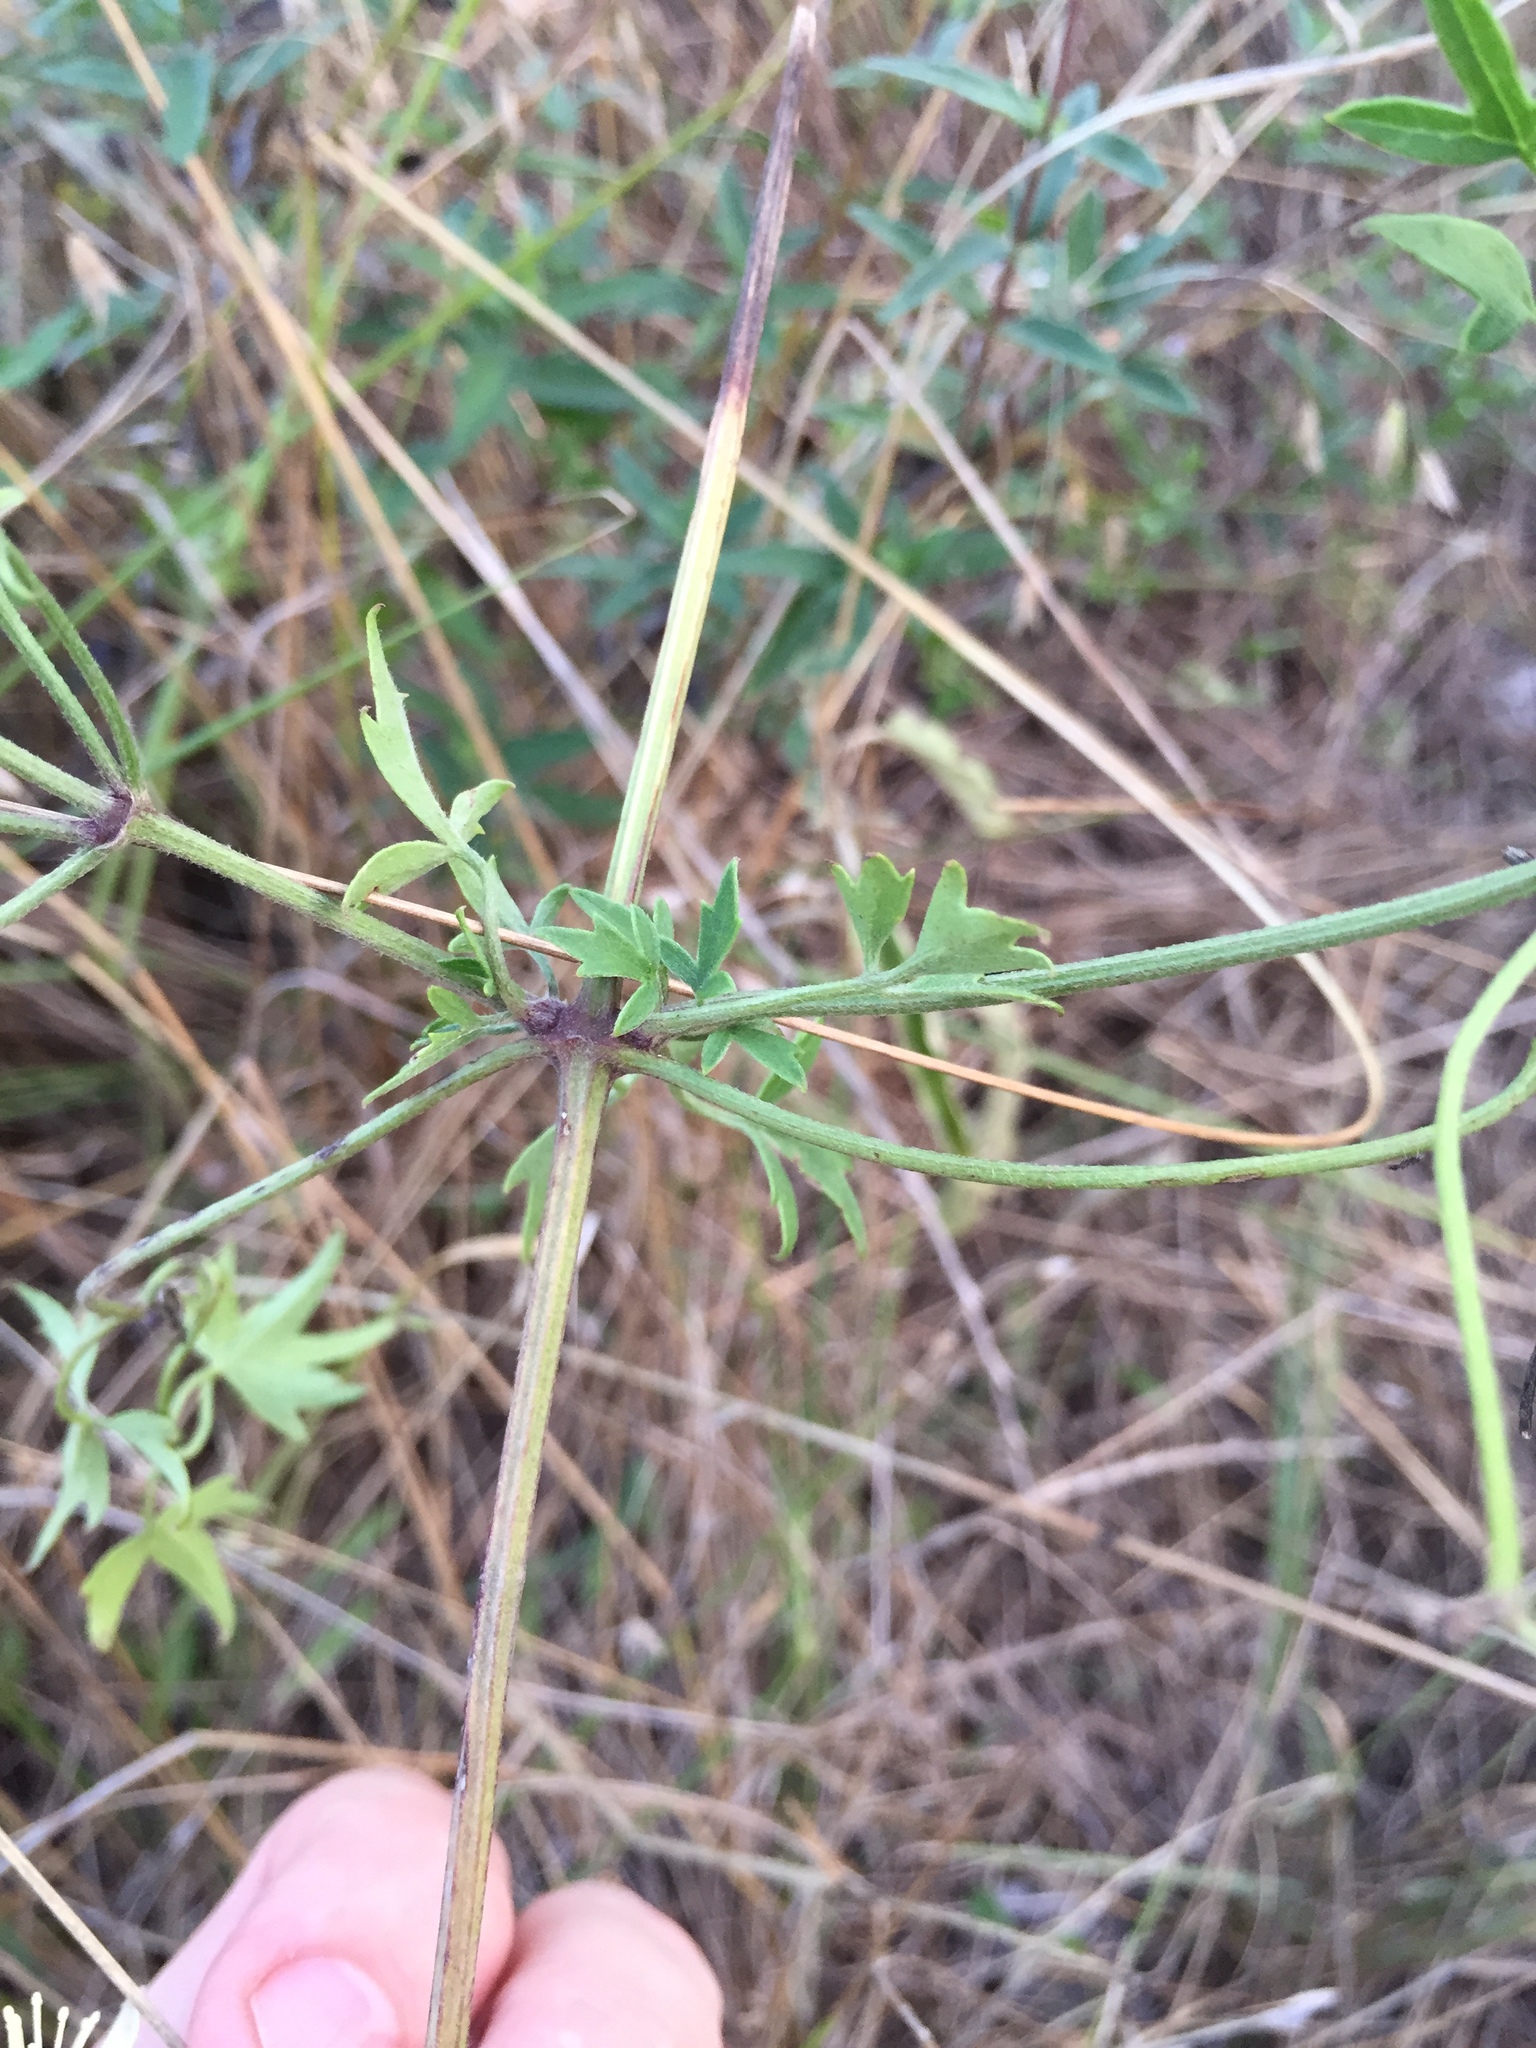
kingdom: Plantae
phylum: Tracheophyta
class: Magnoliopsida
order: Ranunculales
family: Ranunculaceae
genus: Clematis
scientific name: Clematis drummondii
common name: Texas virgin's bower
